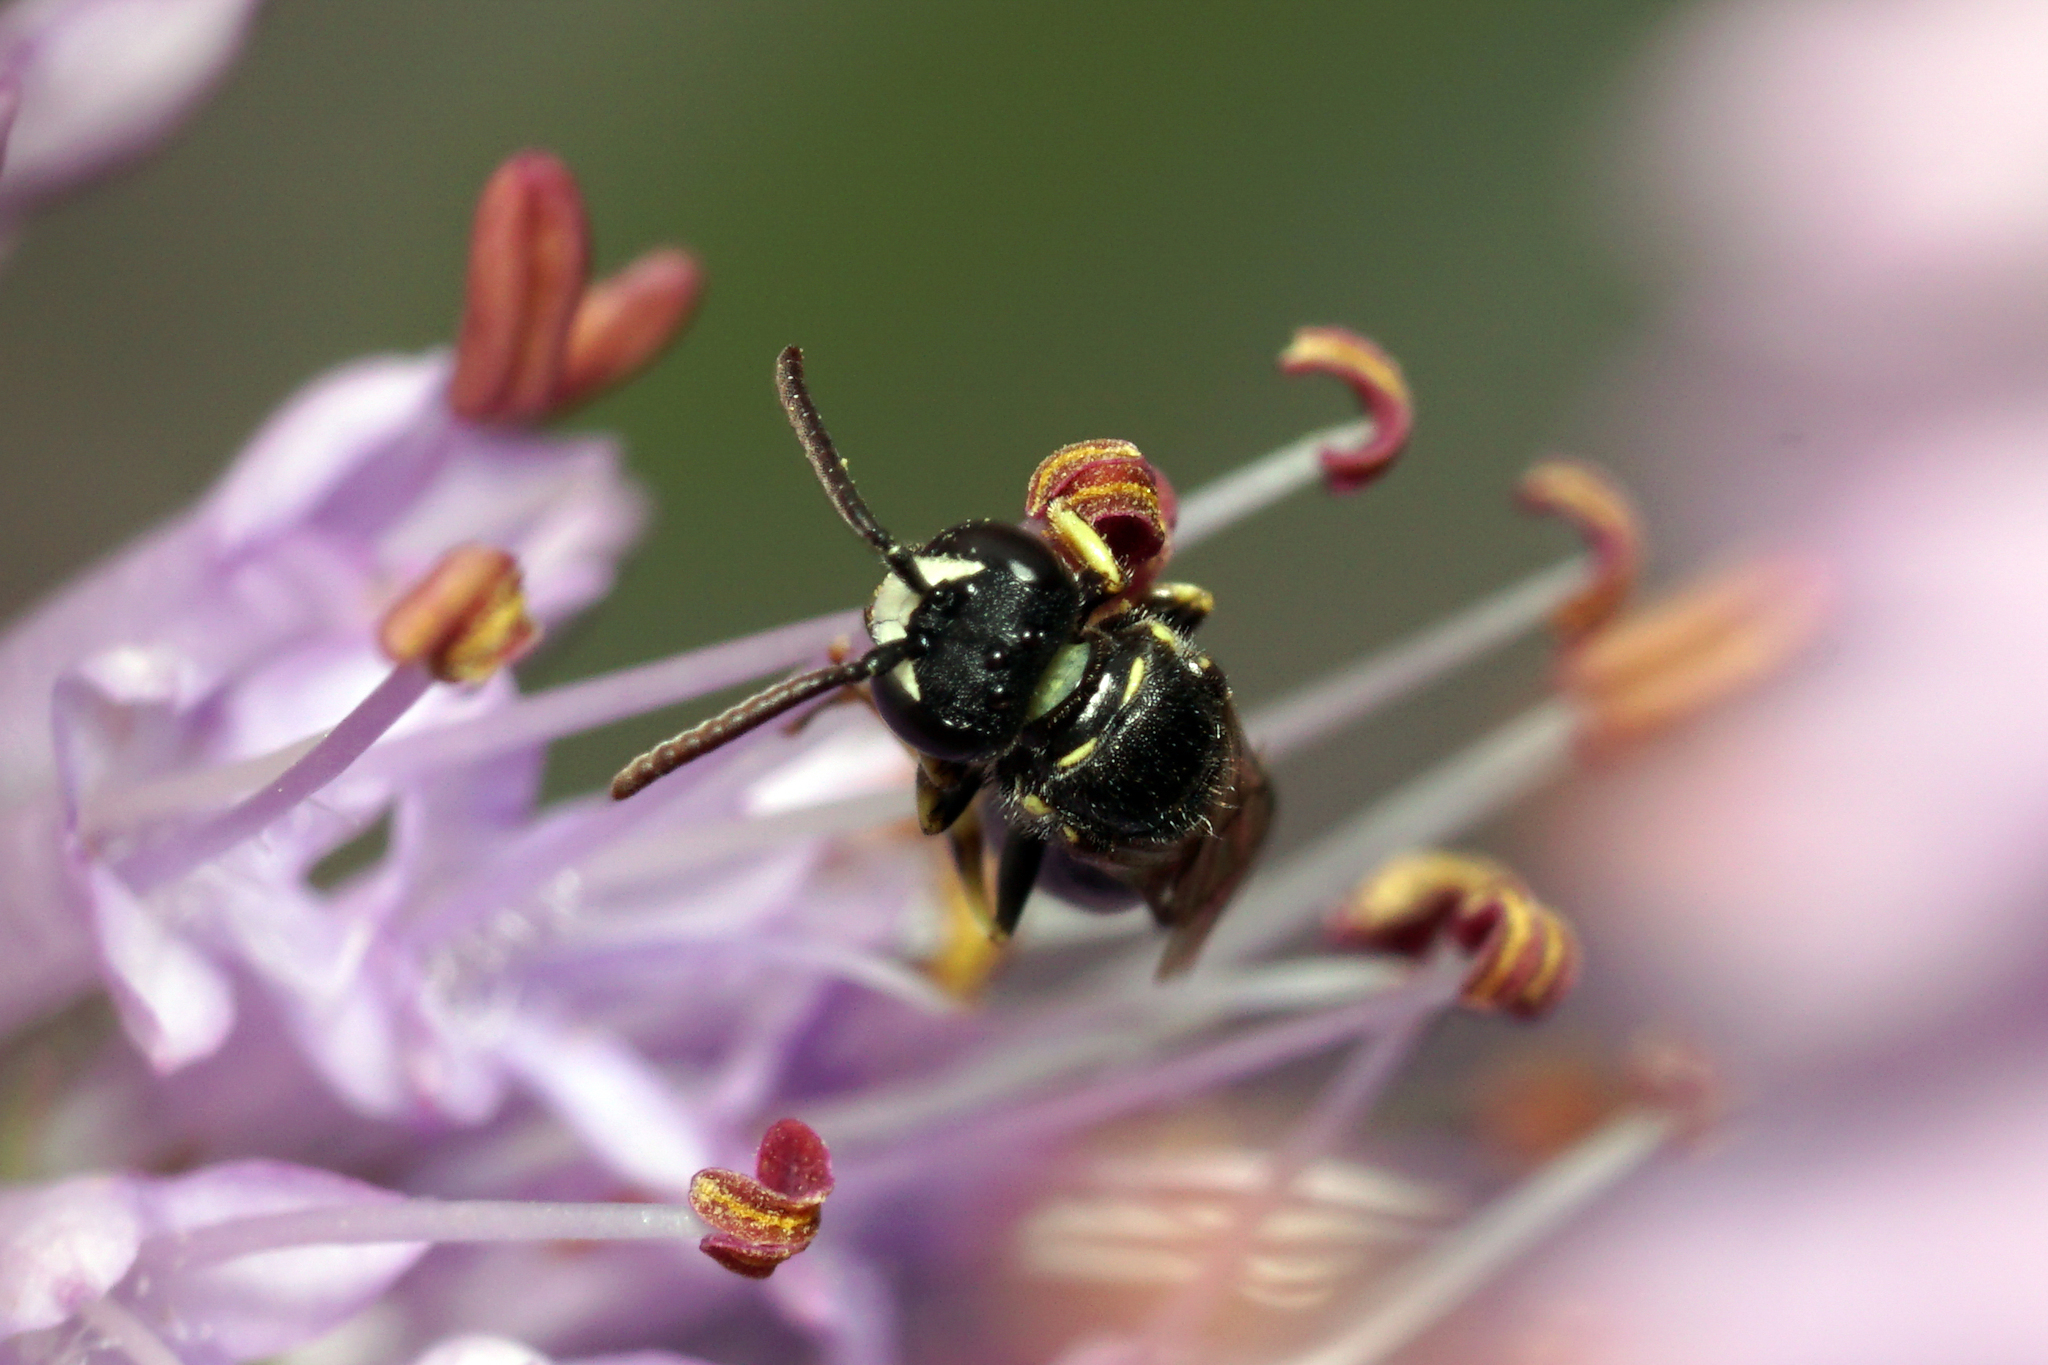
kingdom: Animalia
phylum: Arthropoda
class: Insecta
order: Hymenoptera
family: Colletidae
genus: Hylaeus
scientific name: Hylaeus
